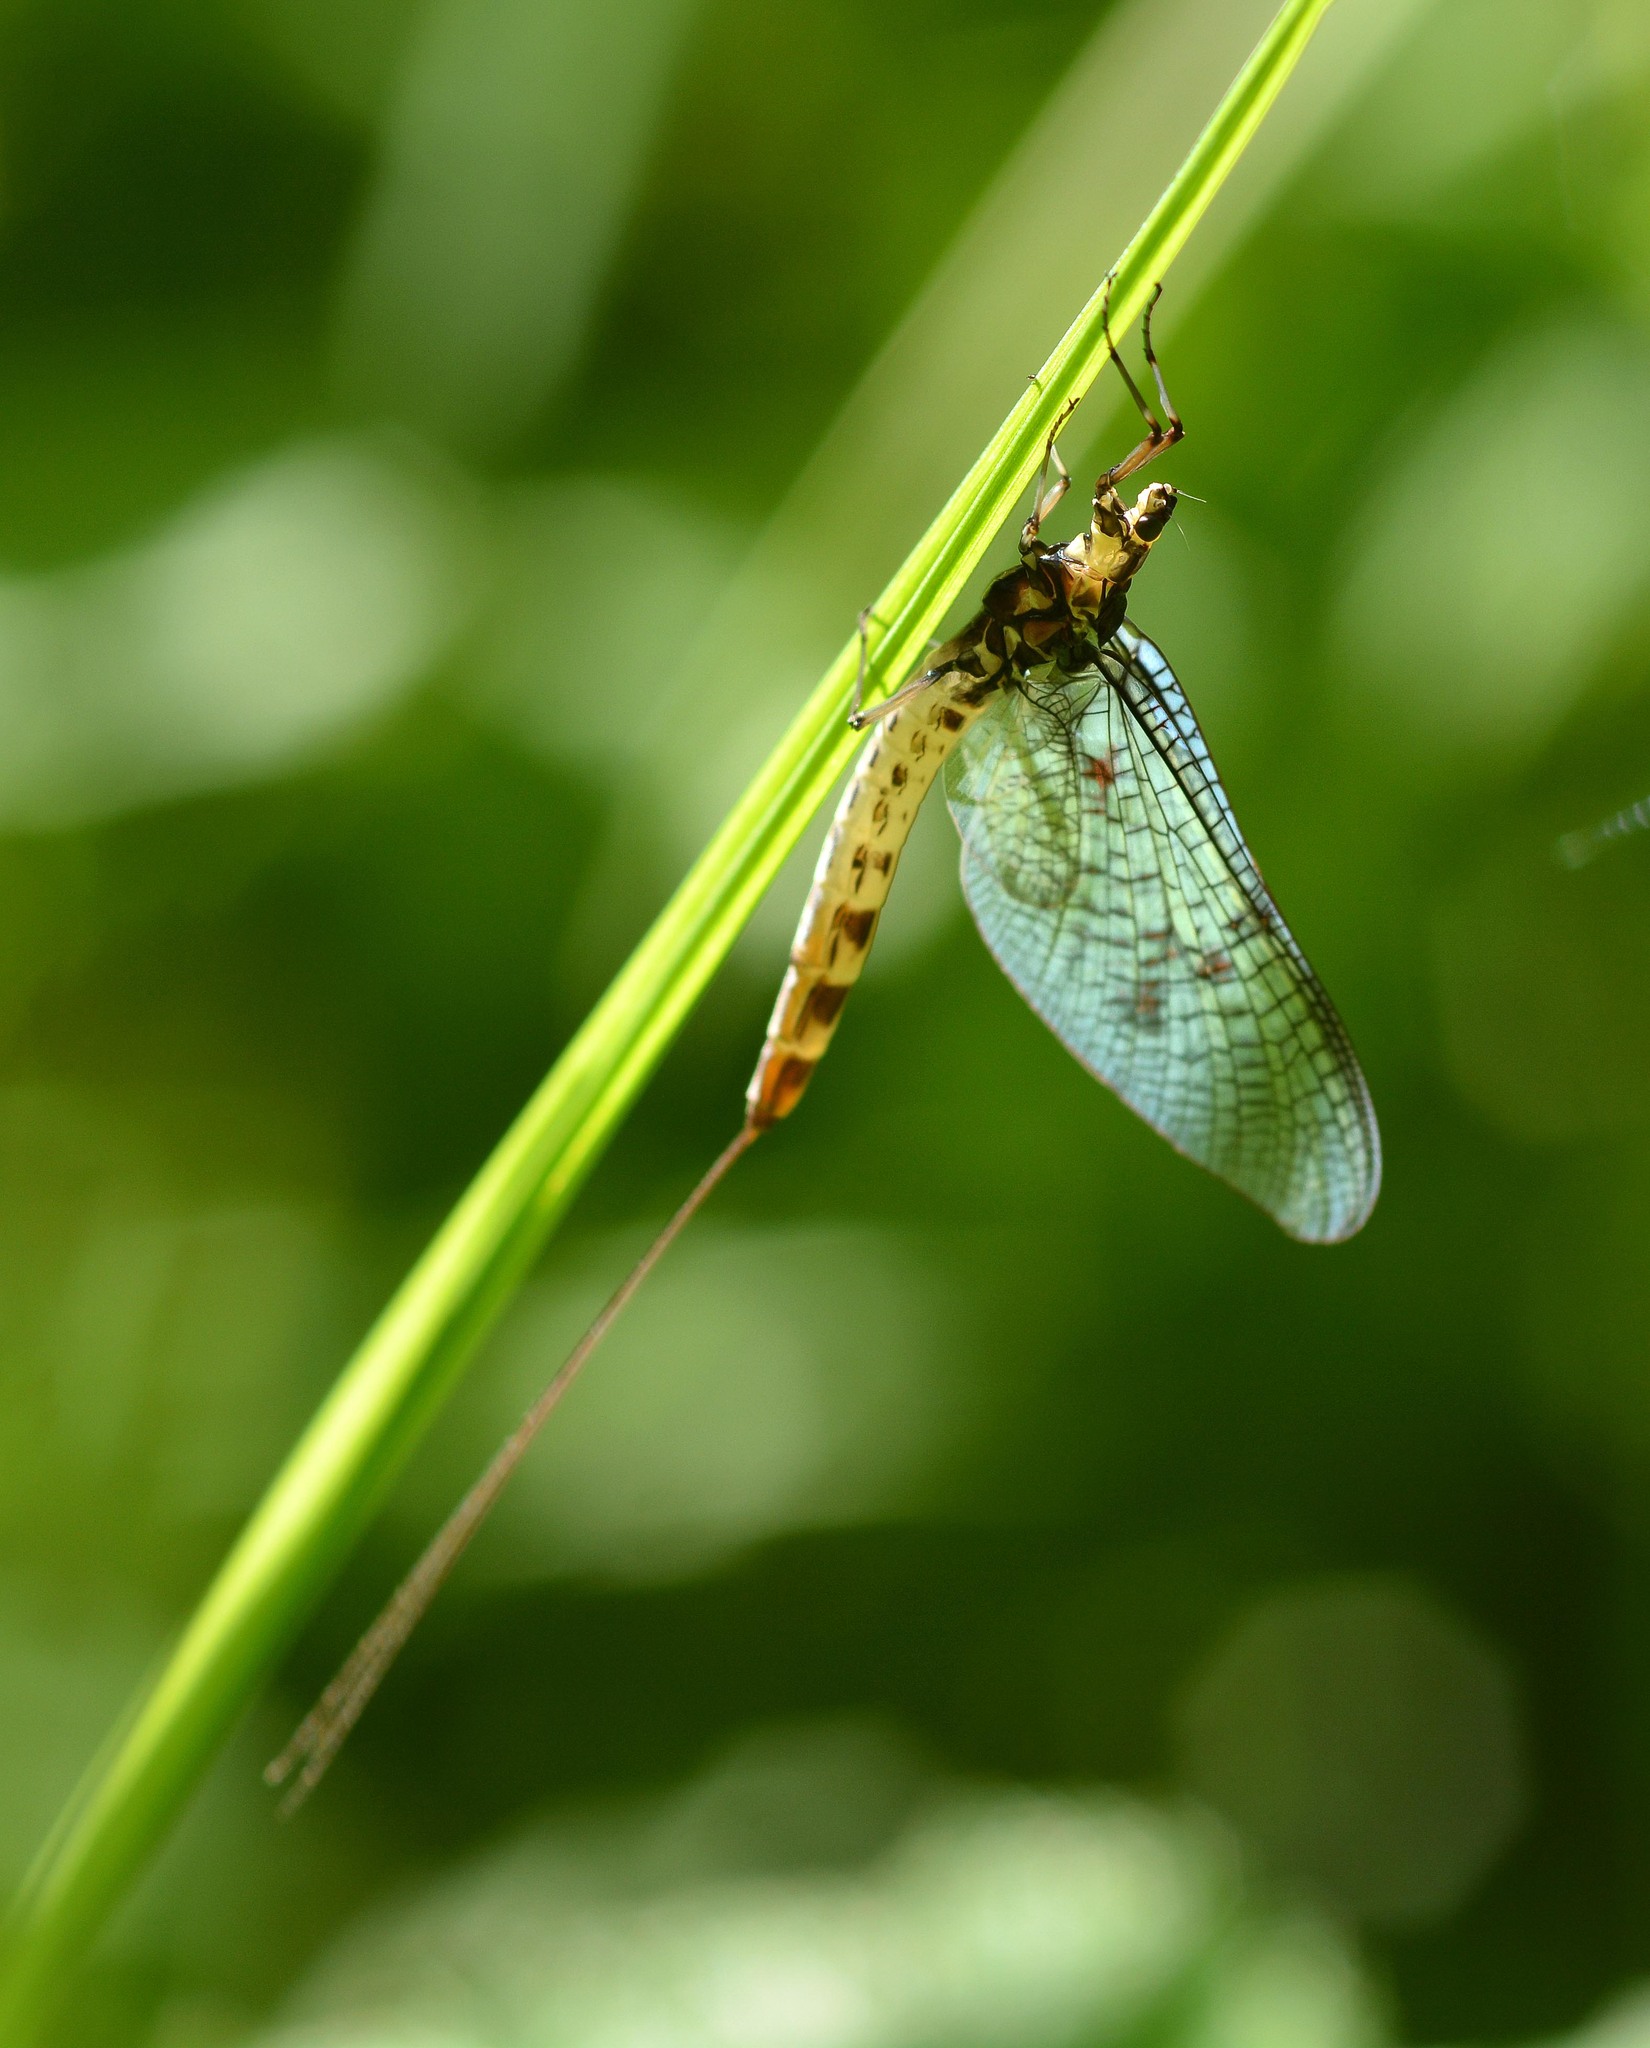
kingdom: Animalia
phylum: Arthropoda
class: Insecta
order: Ephemeroptera
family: Ephemeridae
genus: Ephemera
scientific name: Ephemera danica
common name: Green dun
